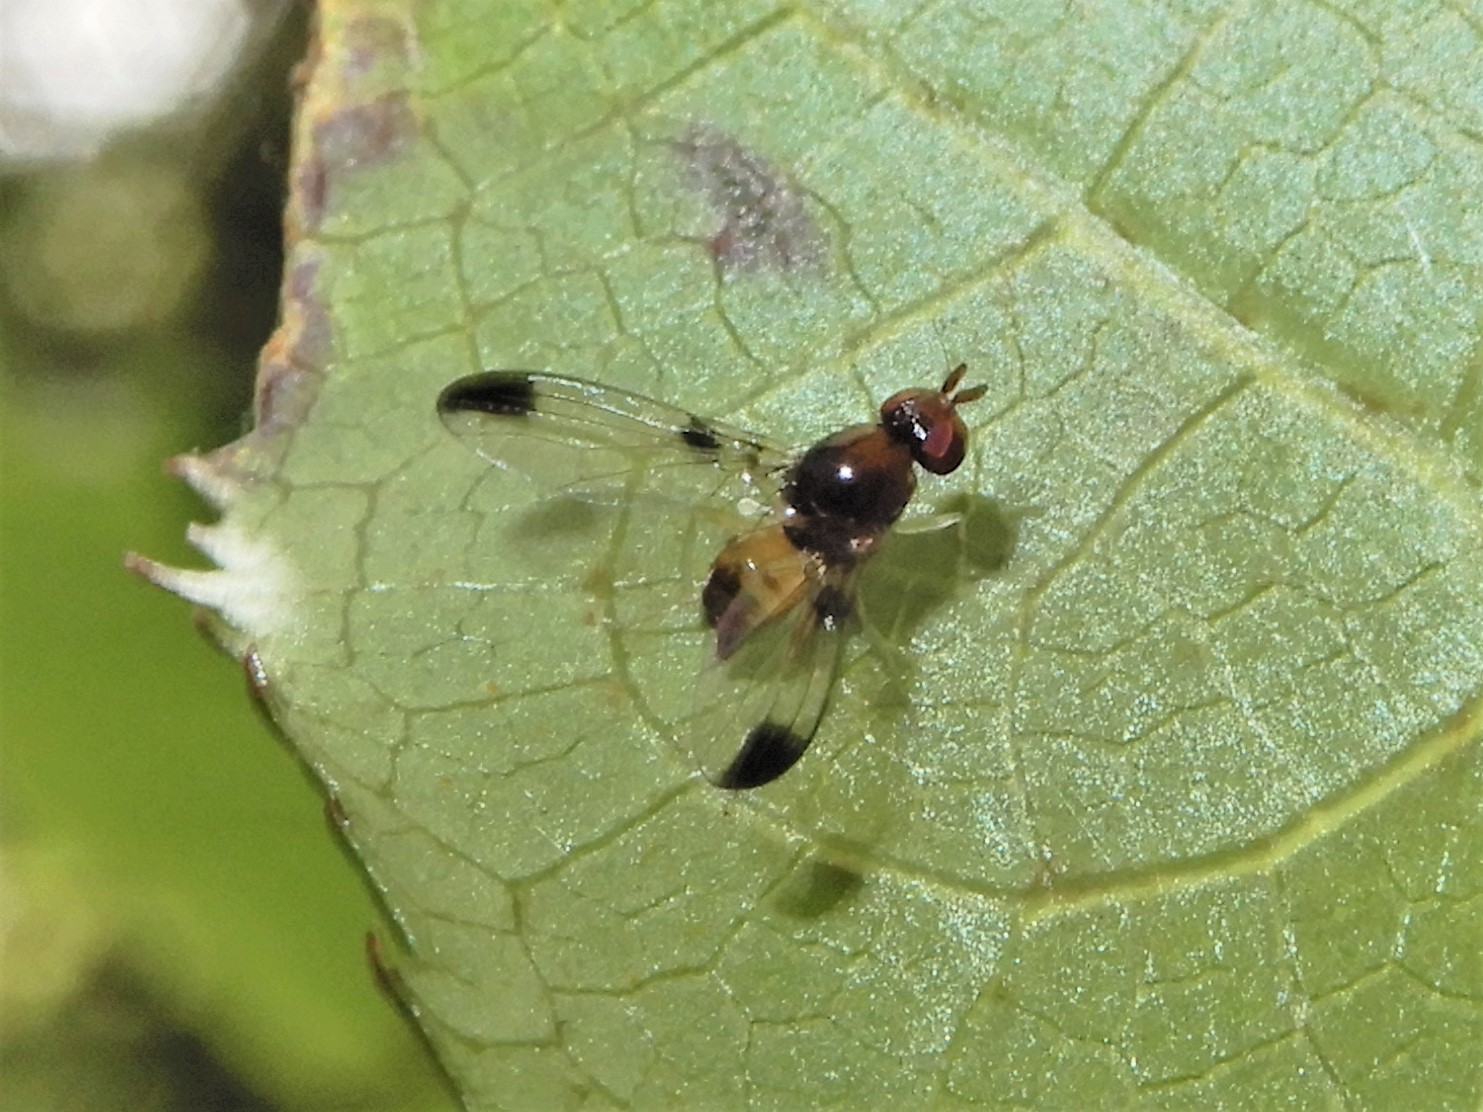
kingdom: Animalia
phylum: Arthropoda
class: Insecta
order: Diptera
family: Pallopteridae
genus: Neomaorina
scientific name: Neomaorina bimacula
